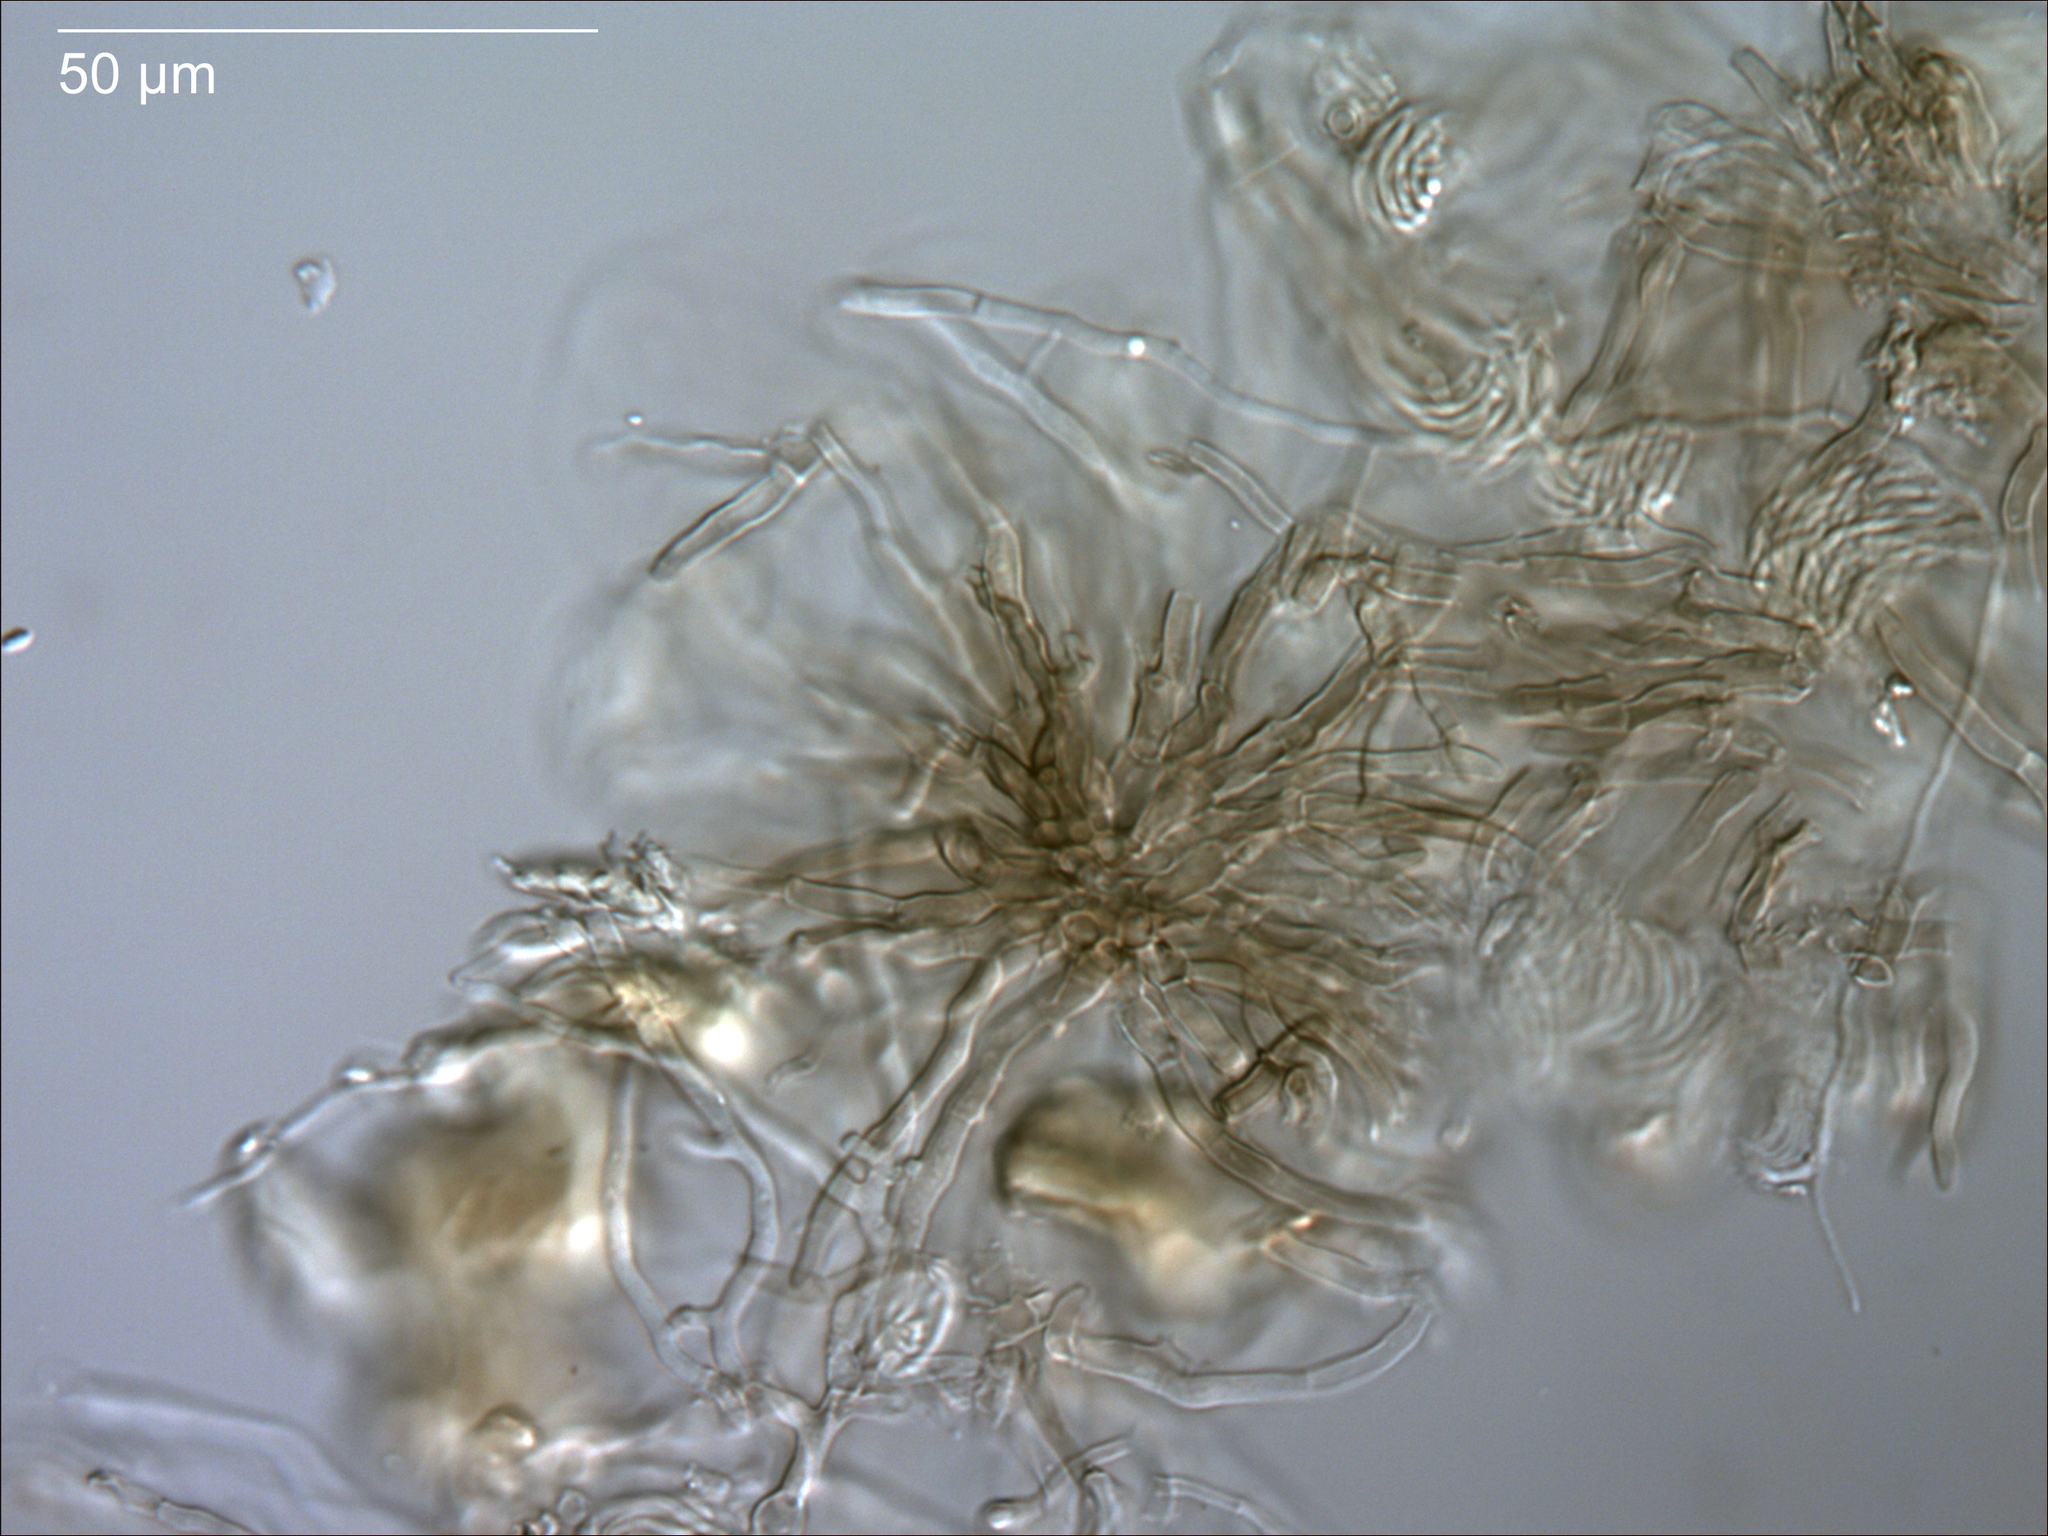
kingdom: Fungi
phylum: Ascomycota
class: Sordariomycetes
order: Sordariales
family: Lasiosphaeriaceae
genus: Bagadiella
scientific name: Bagadiella lunata
